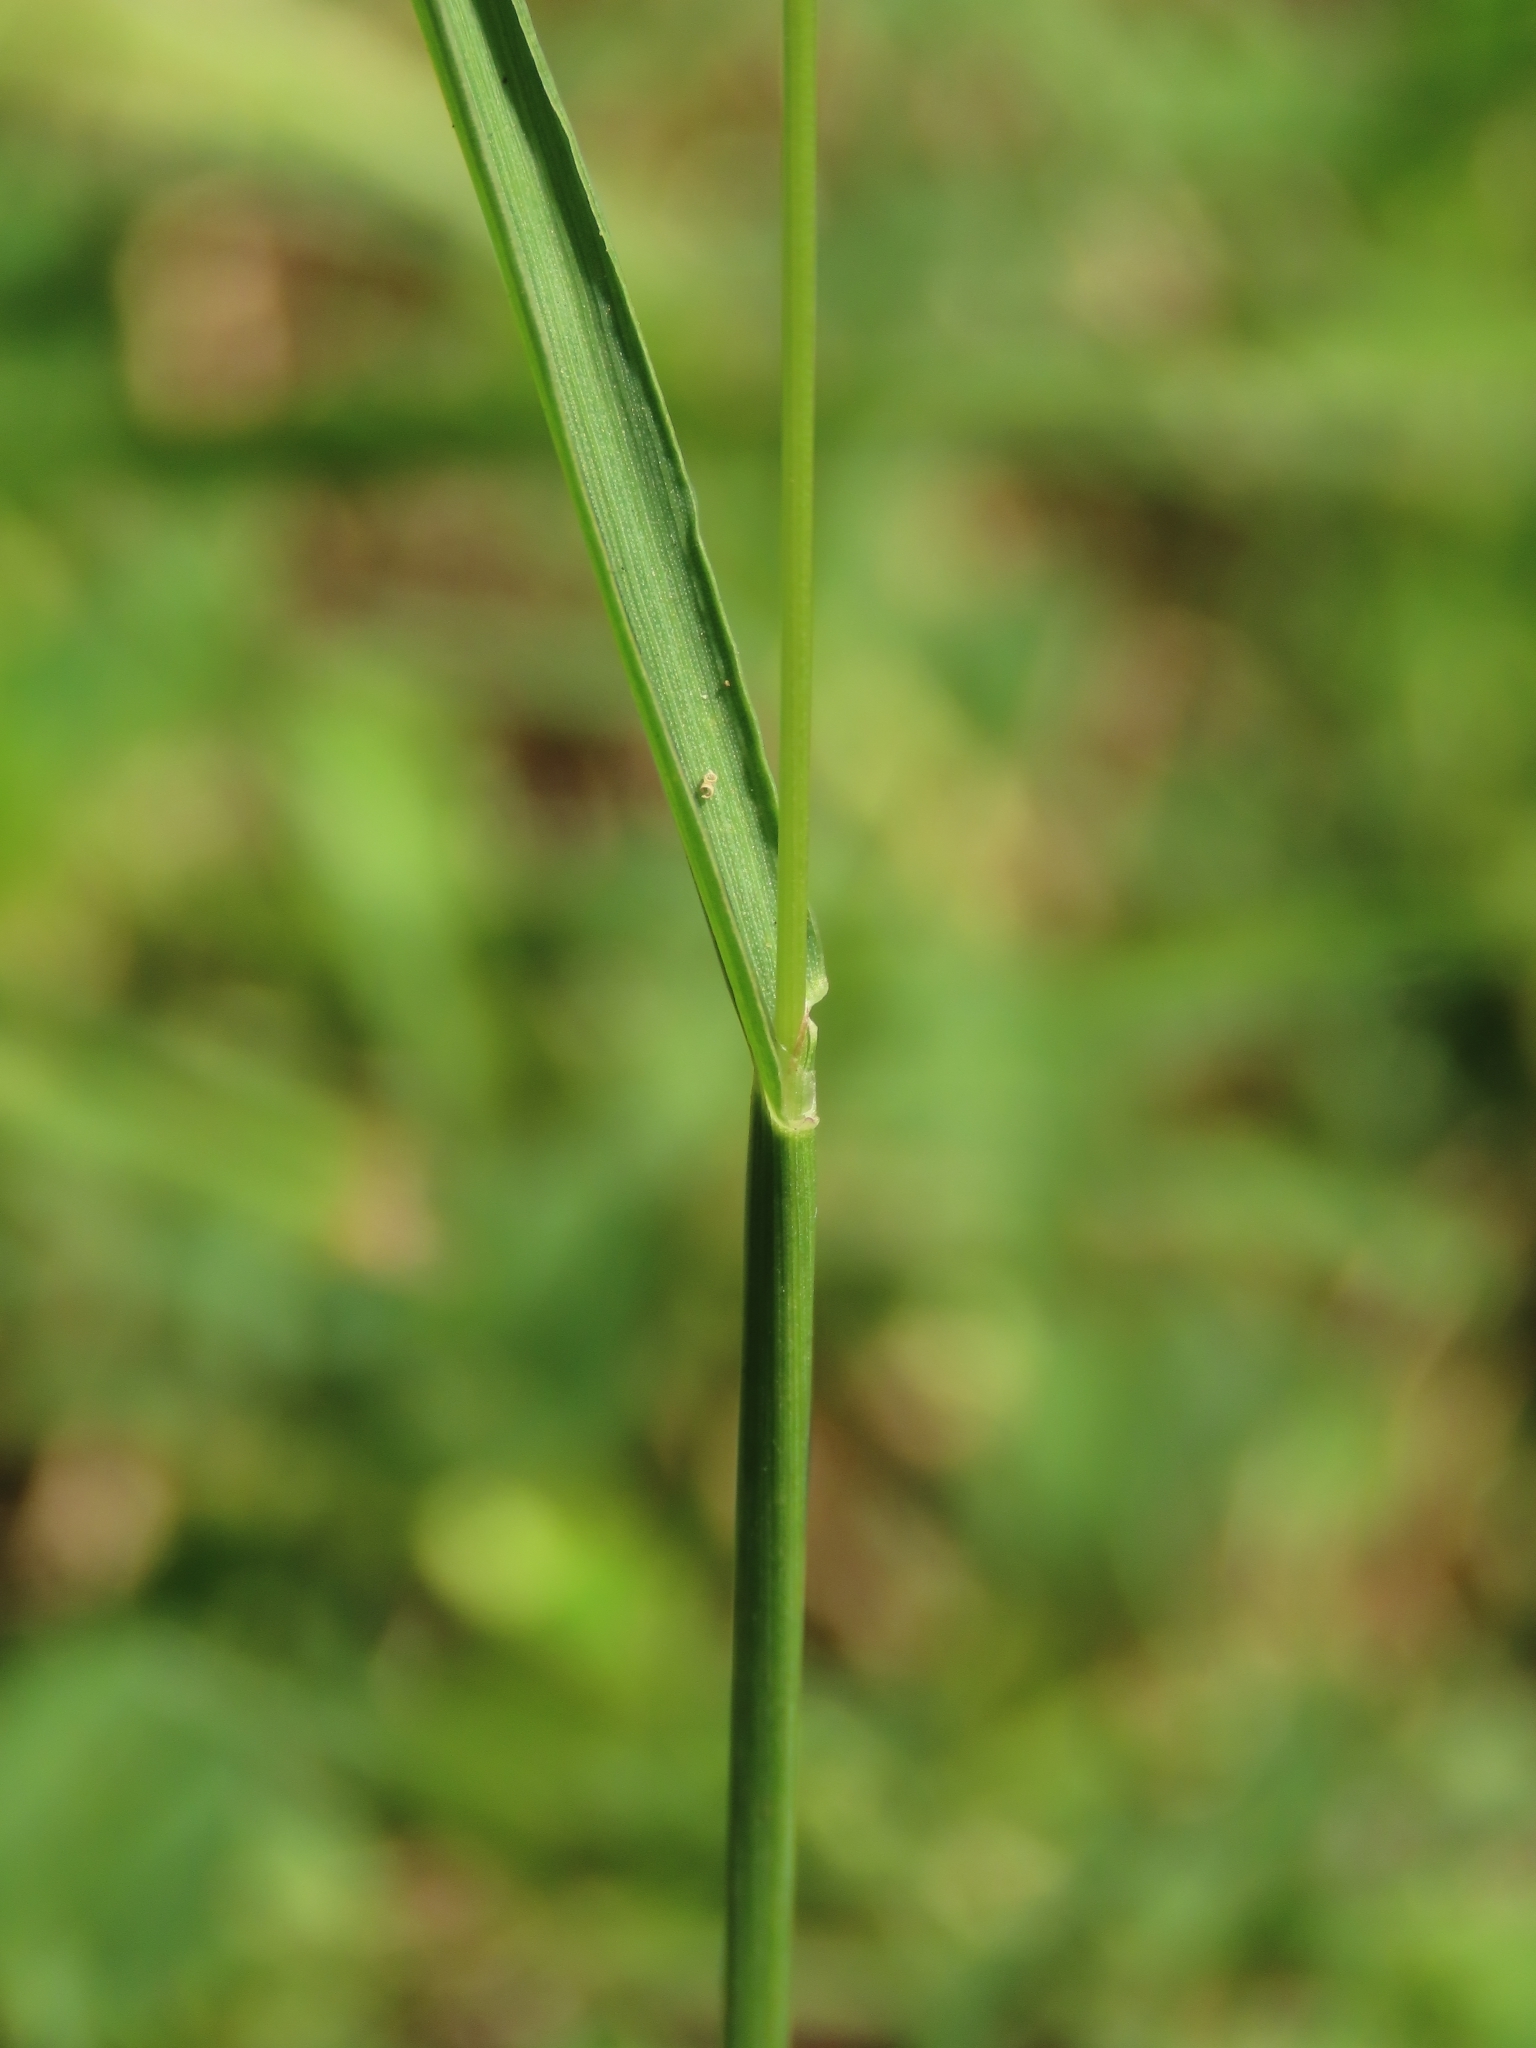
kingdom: Plantae
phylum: Tracheophyta
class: Liliopsida
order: Poales
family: Poaceae
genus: Digitaria
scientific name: Digitaria violascens
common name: Violet crabgrass
